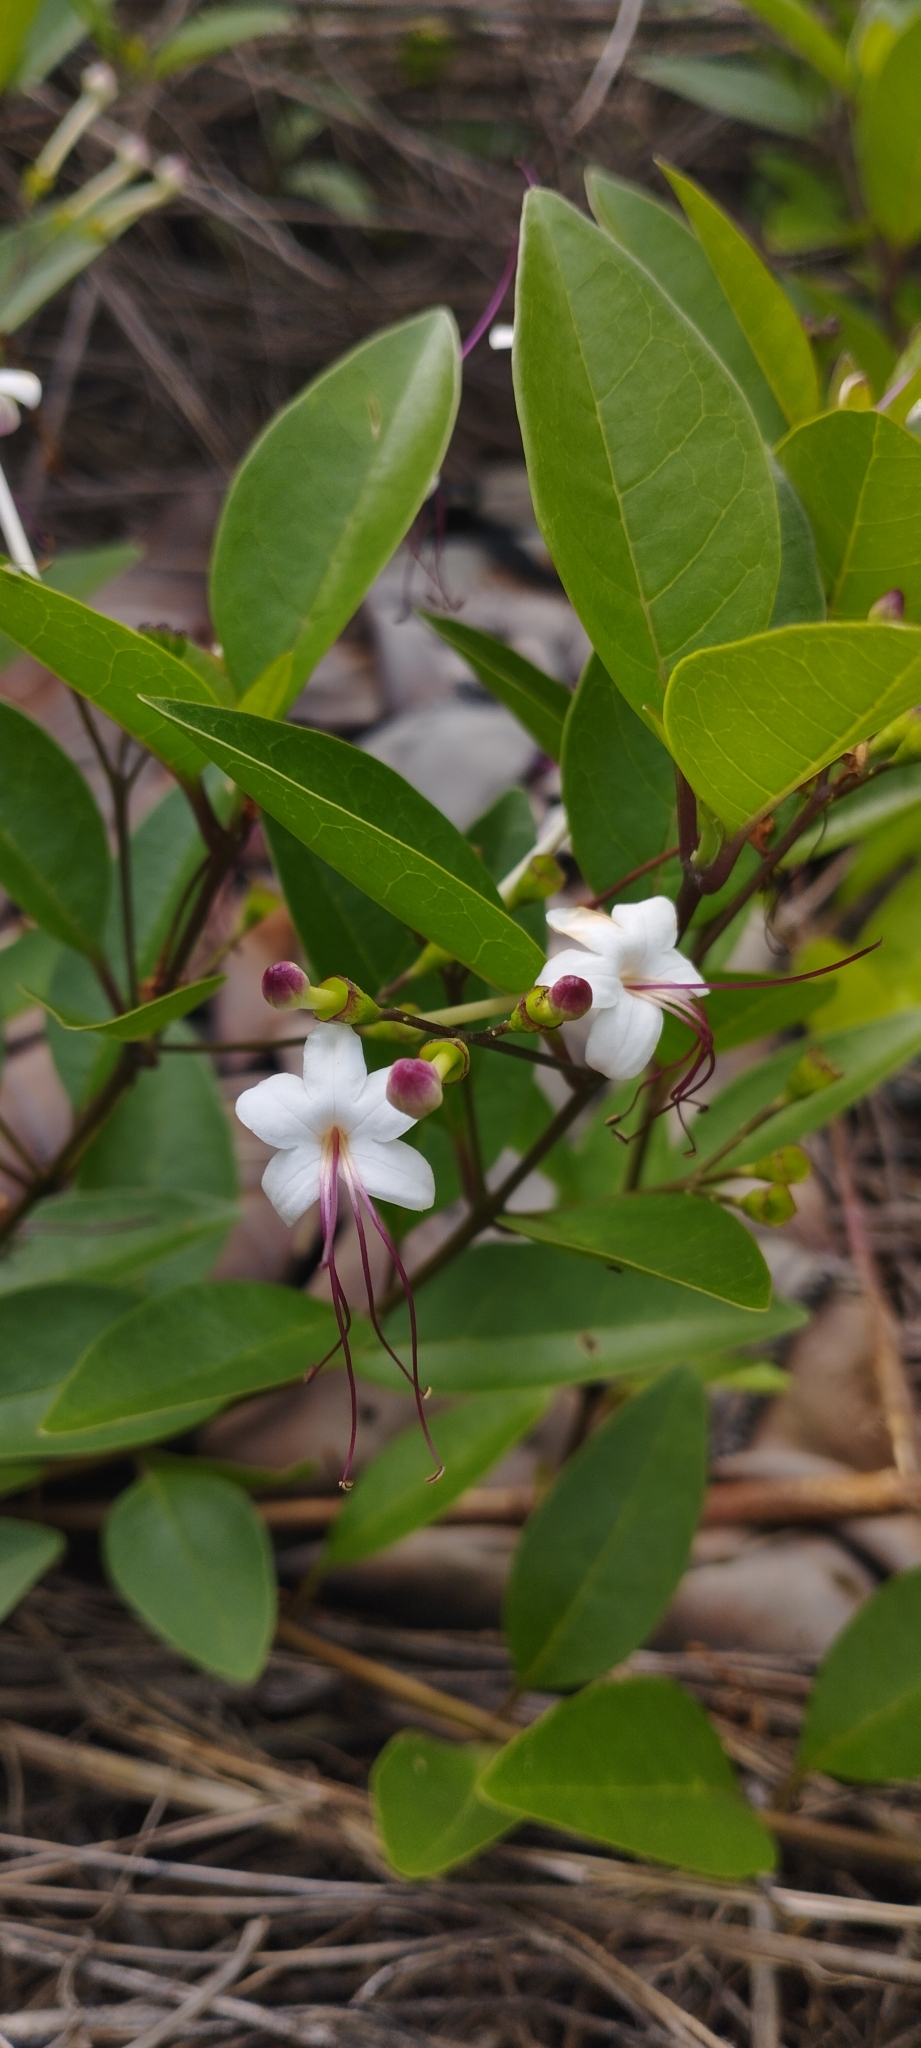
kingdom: Plantae
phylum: Tracheophyta
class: Magnoliopsida
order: Lamiales
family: Lamiaceae
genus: Volkameria
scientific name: Volkameria inermis
